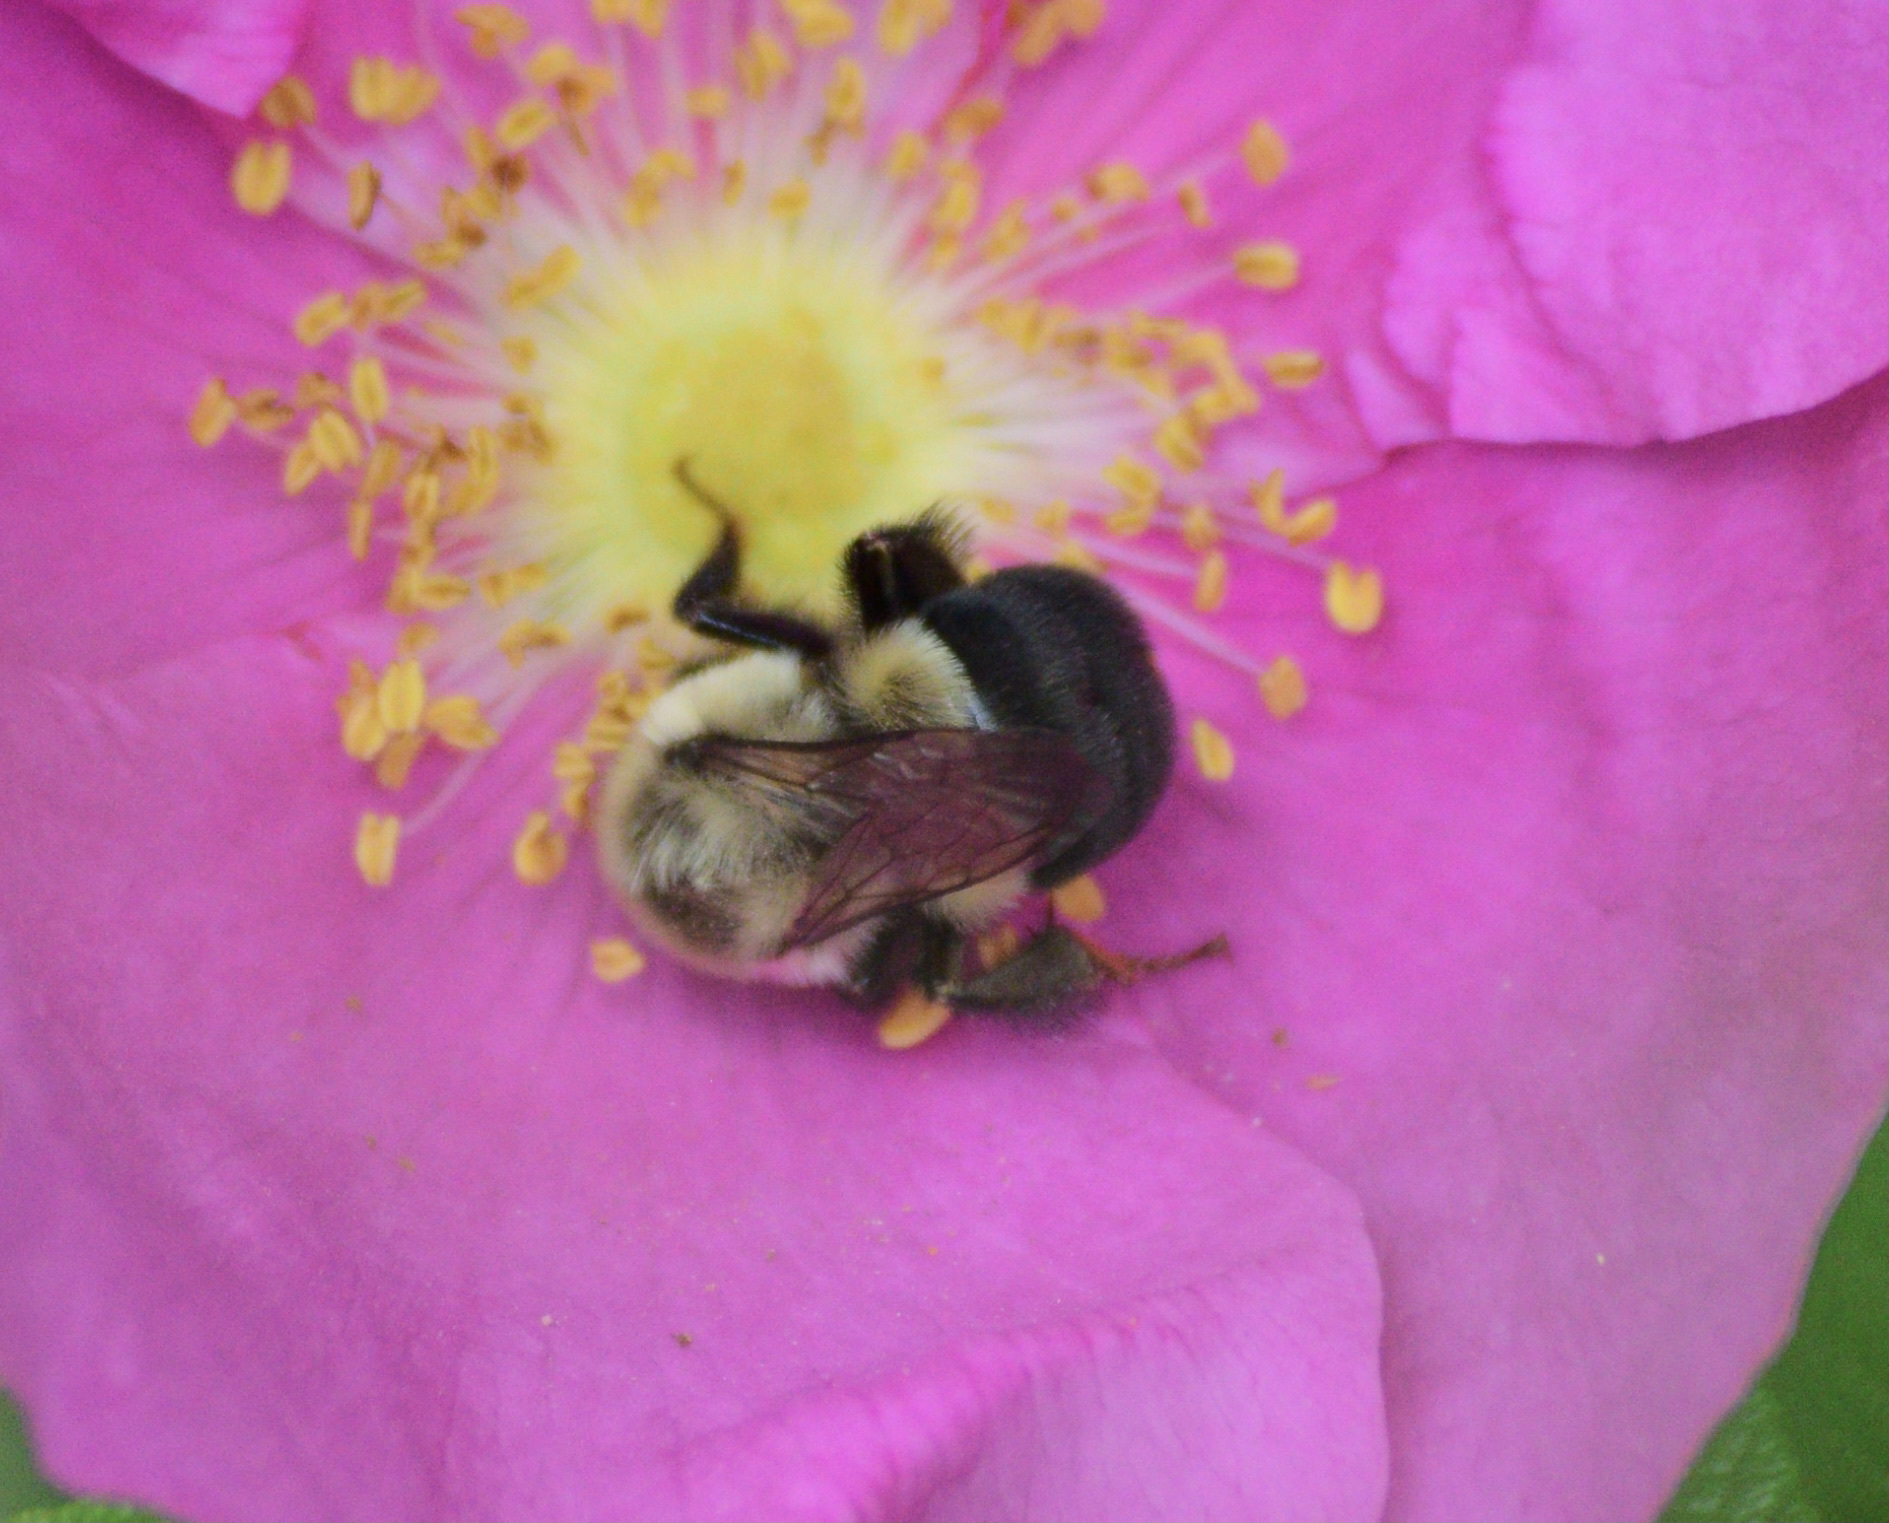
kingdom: Animalia
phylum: Arthropoda
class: Insecta
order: Hymenoptera
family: Apidae
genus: Bombus
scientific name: Bombus impatiens
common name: Common eastern bumble bee
